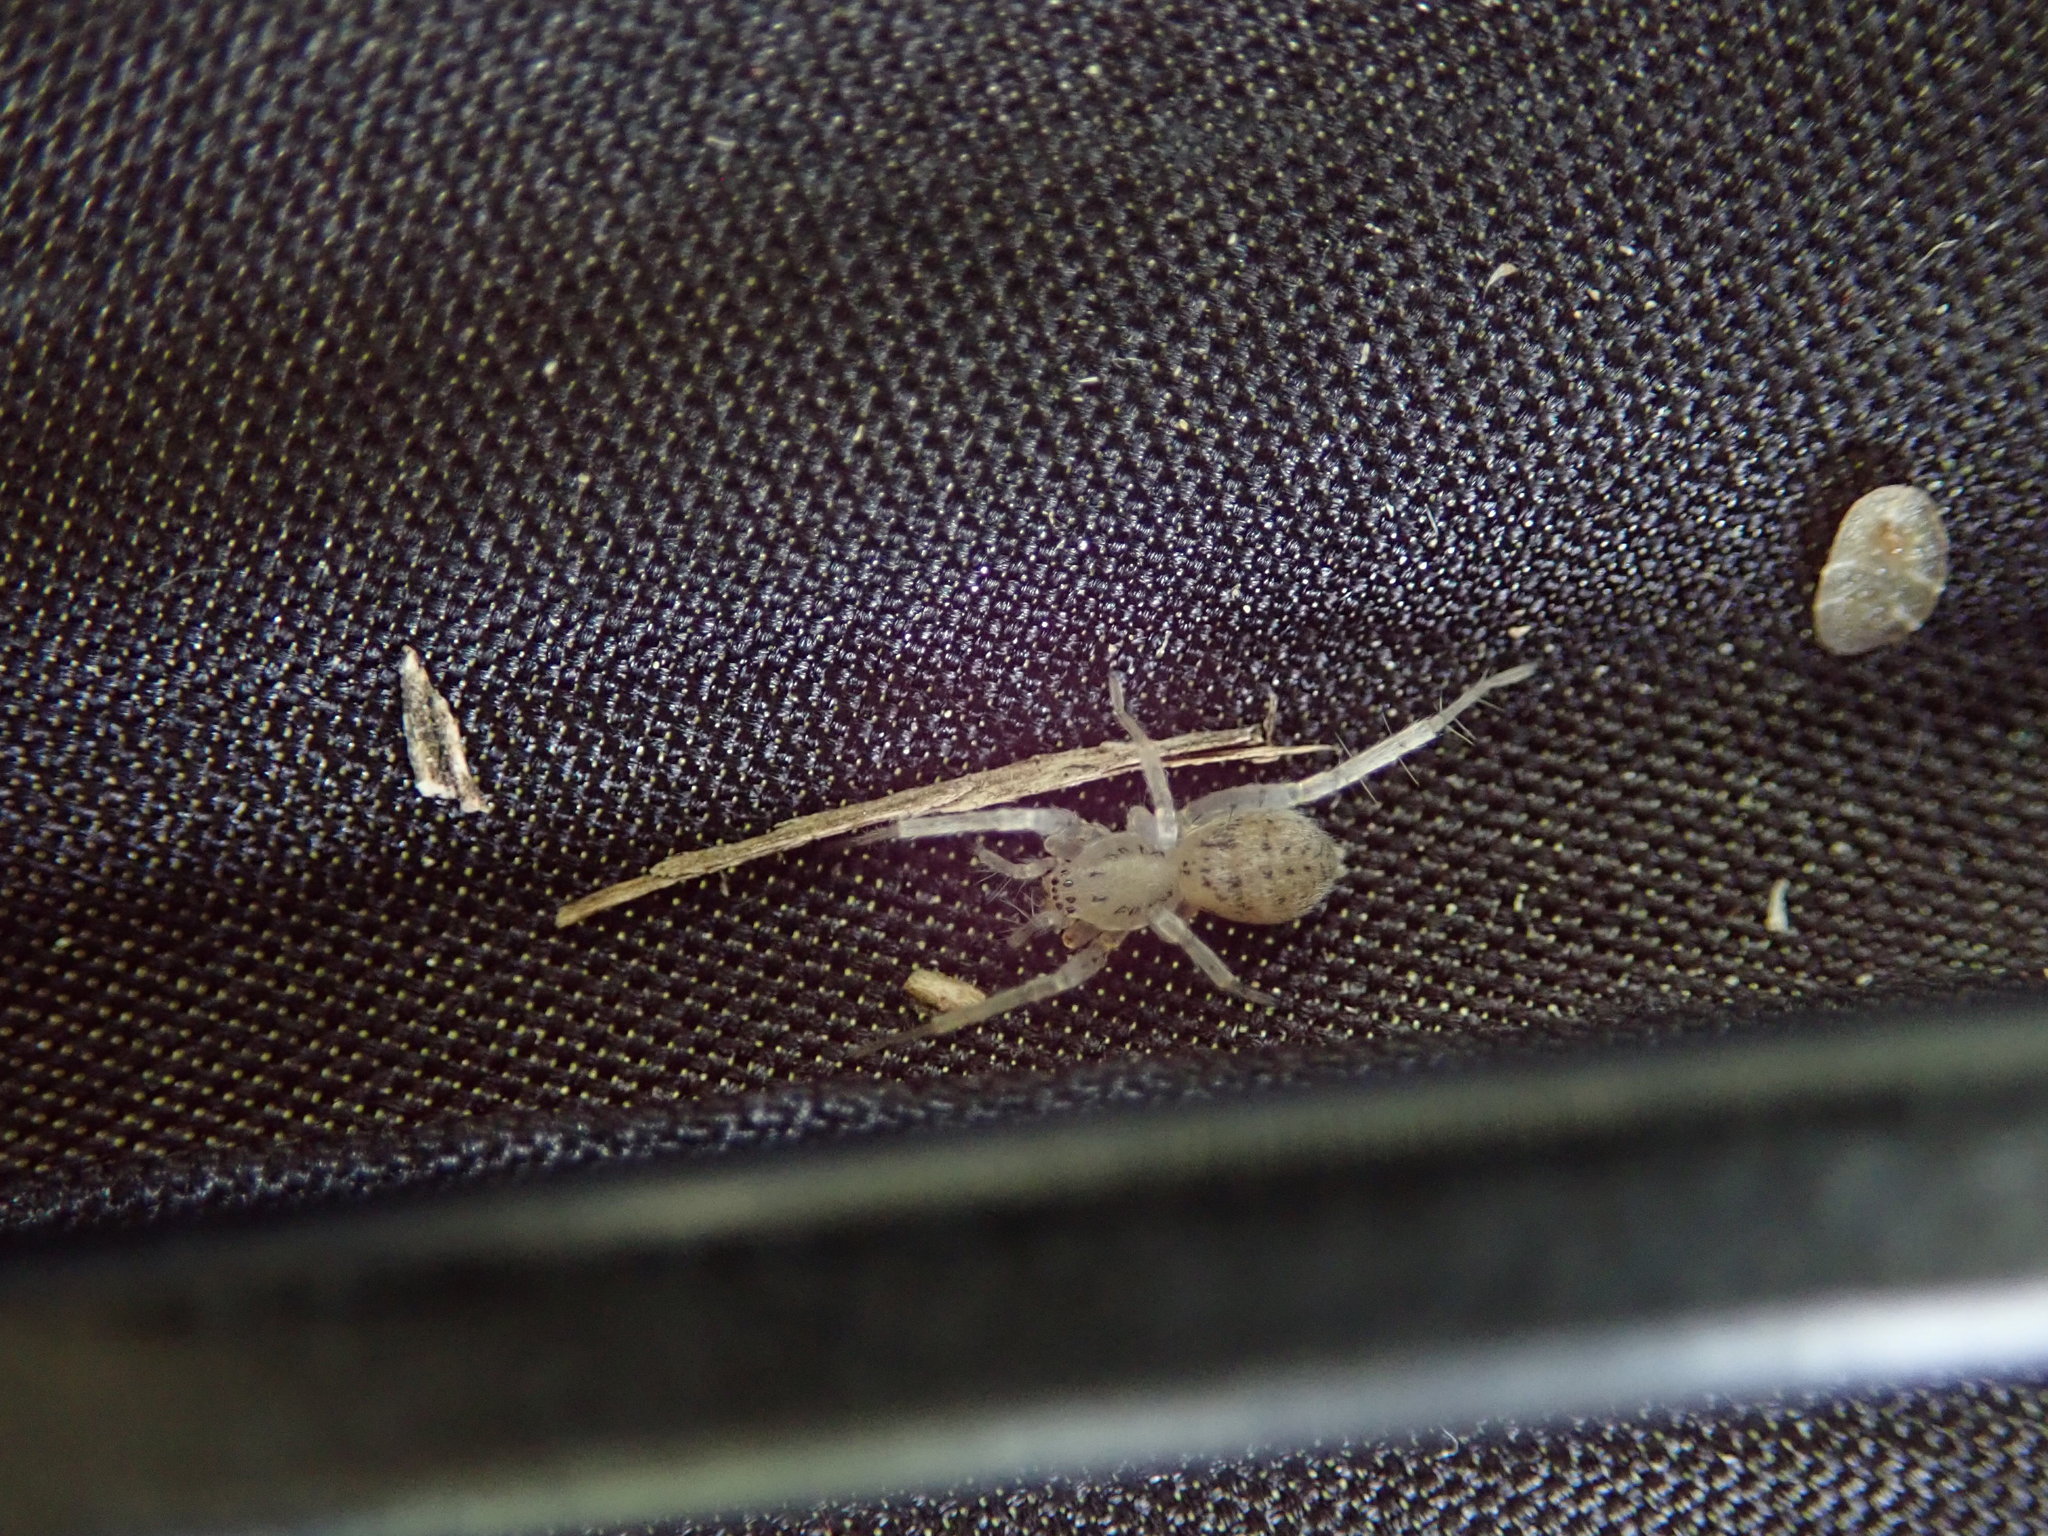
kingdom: Animalia
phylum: Arthropoda
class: Arachnida
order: Araneae
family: Anyphaenidae
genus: Wulfila
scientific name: Wulfila saltabundus
